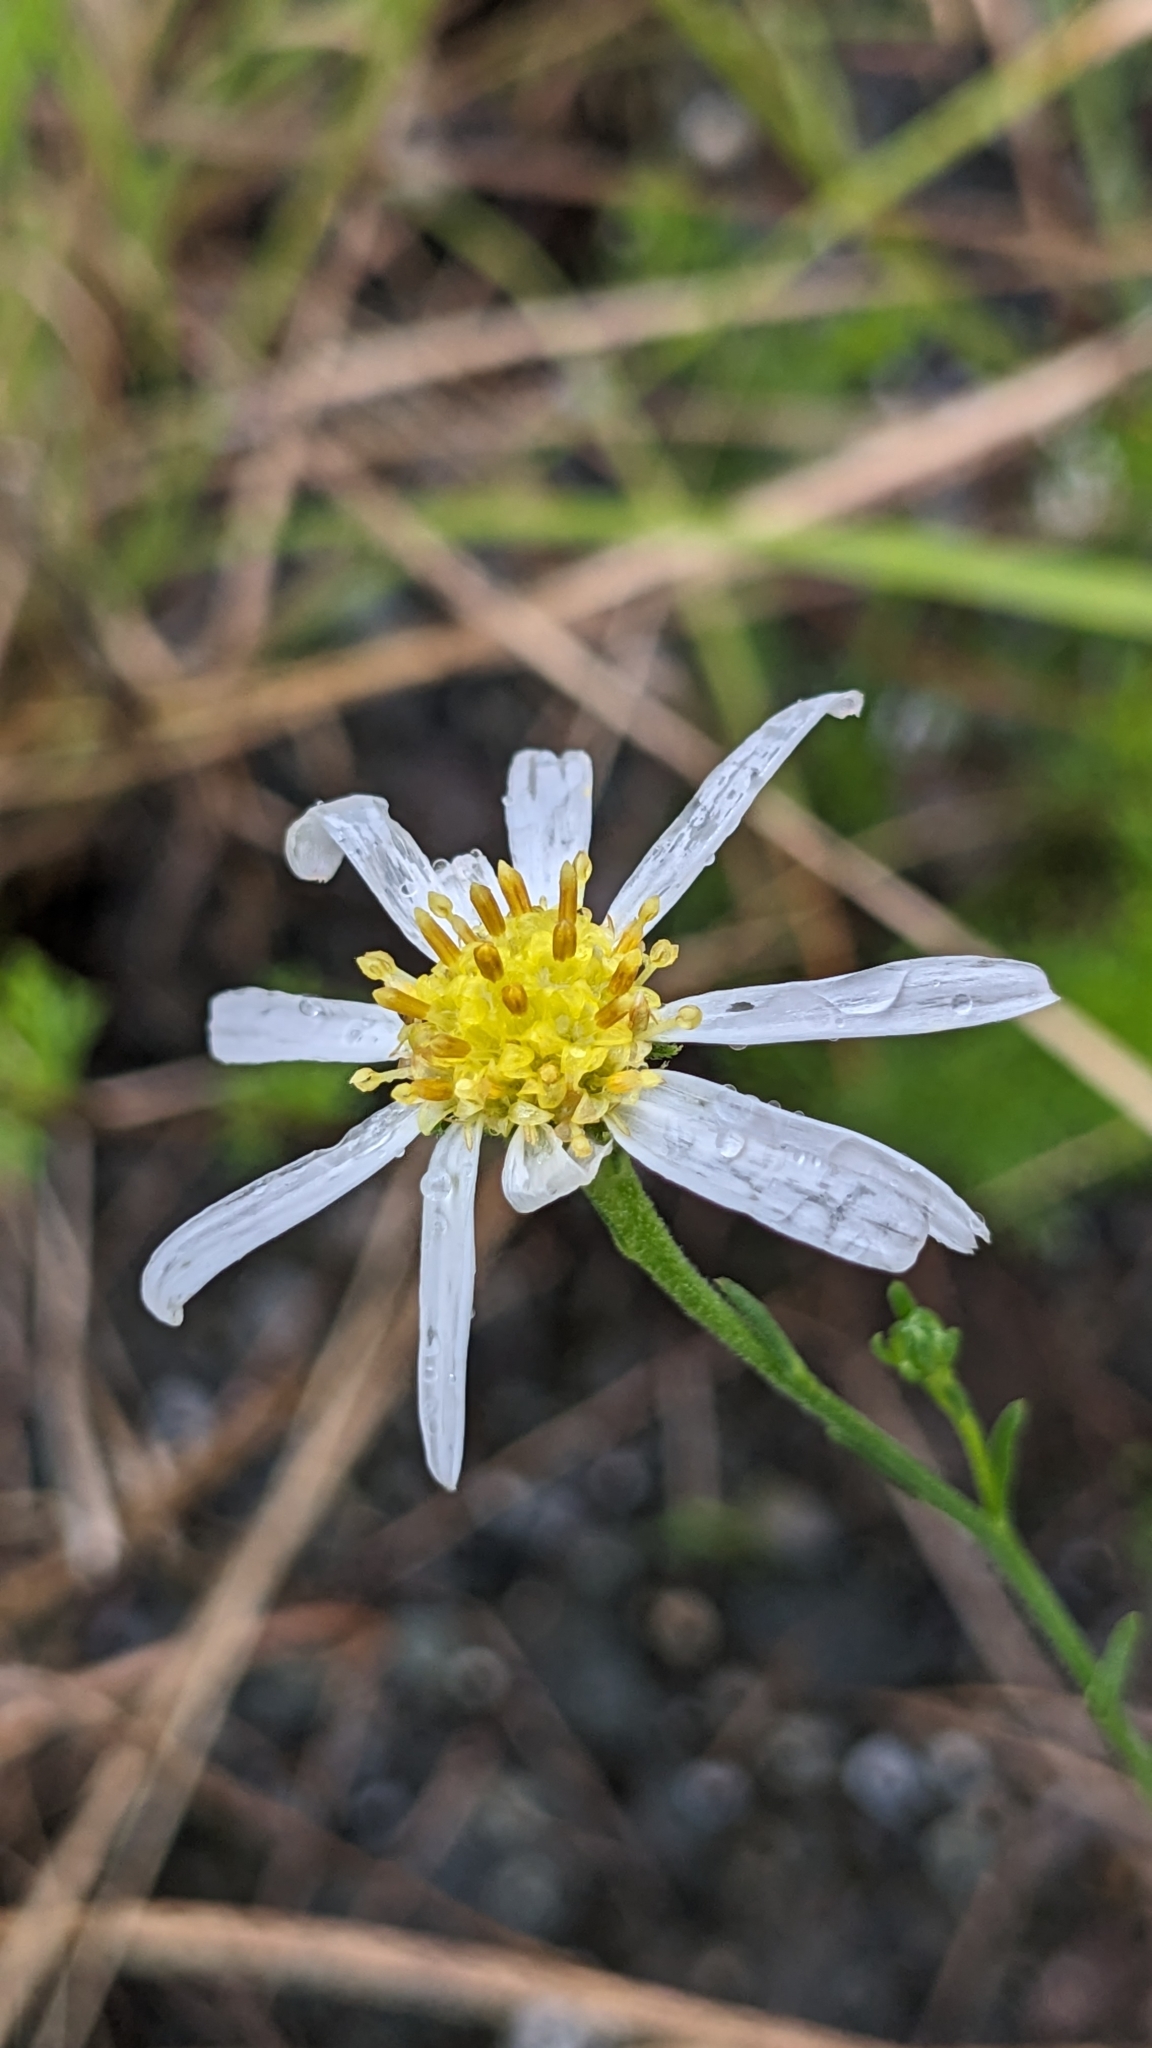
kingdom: Plantae
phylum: Tracheophyta
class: Magnoliopsida
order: Asterales
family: Asteraceae
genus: Heteropappus
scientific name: Heteropappus altaicus
